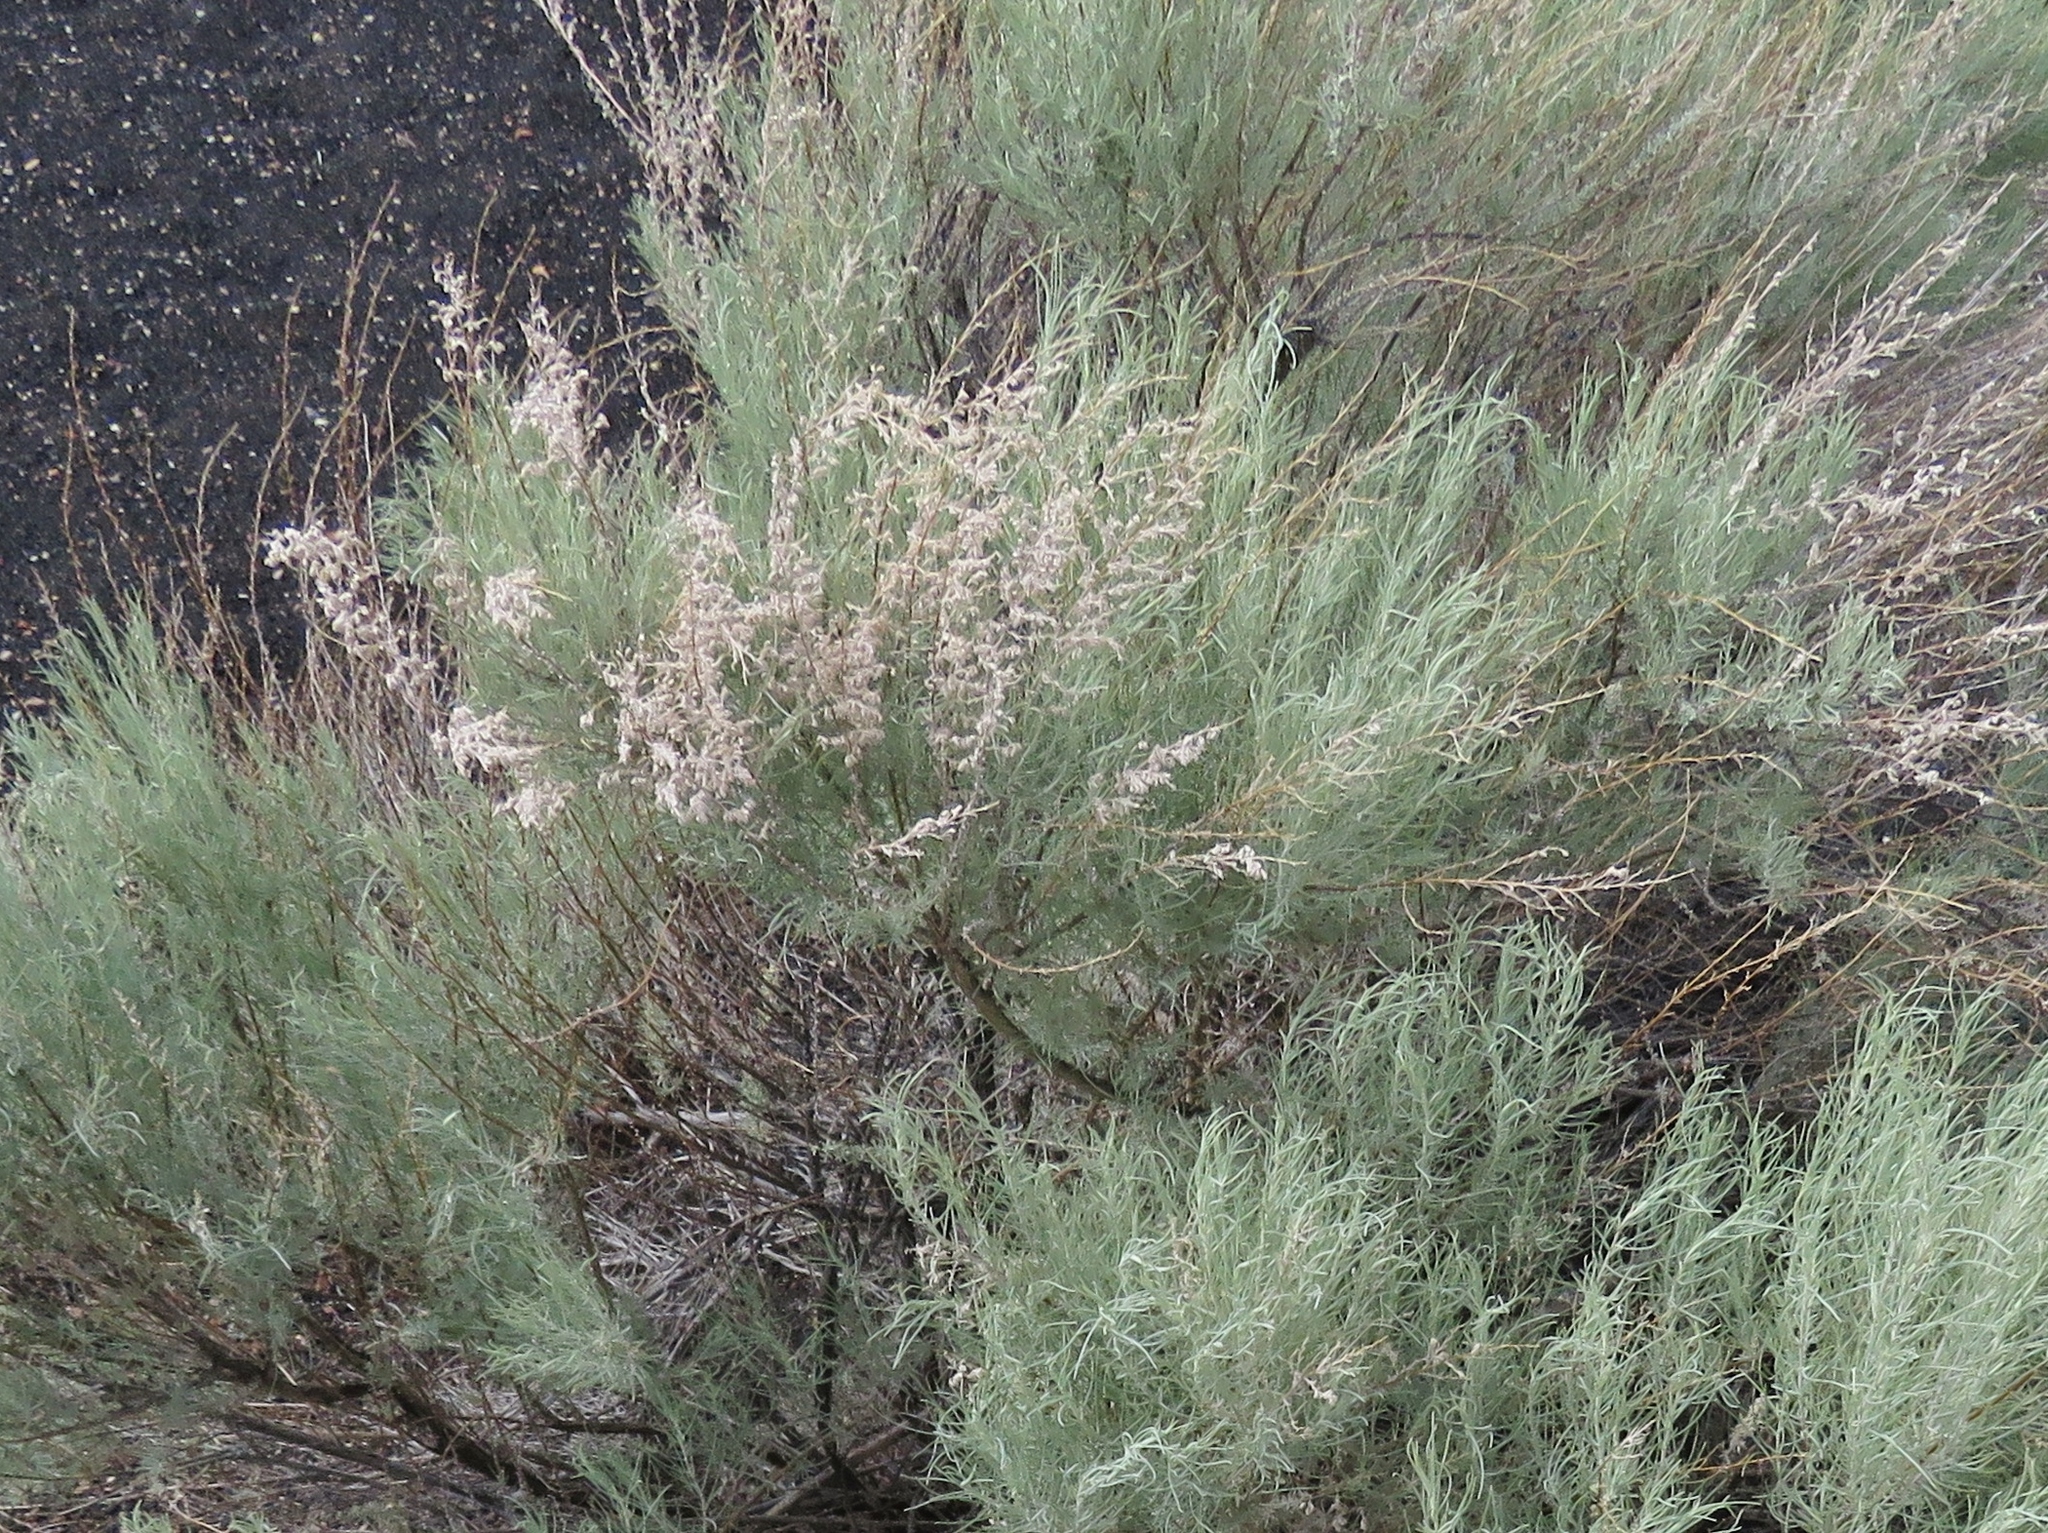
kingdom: Plantae
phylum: Tracheophyta
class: Magnoliopsida
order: Asterales
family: Asteraceae
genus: Artemisia
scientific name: Artemisia filifolia
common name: Sand-sage
